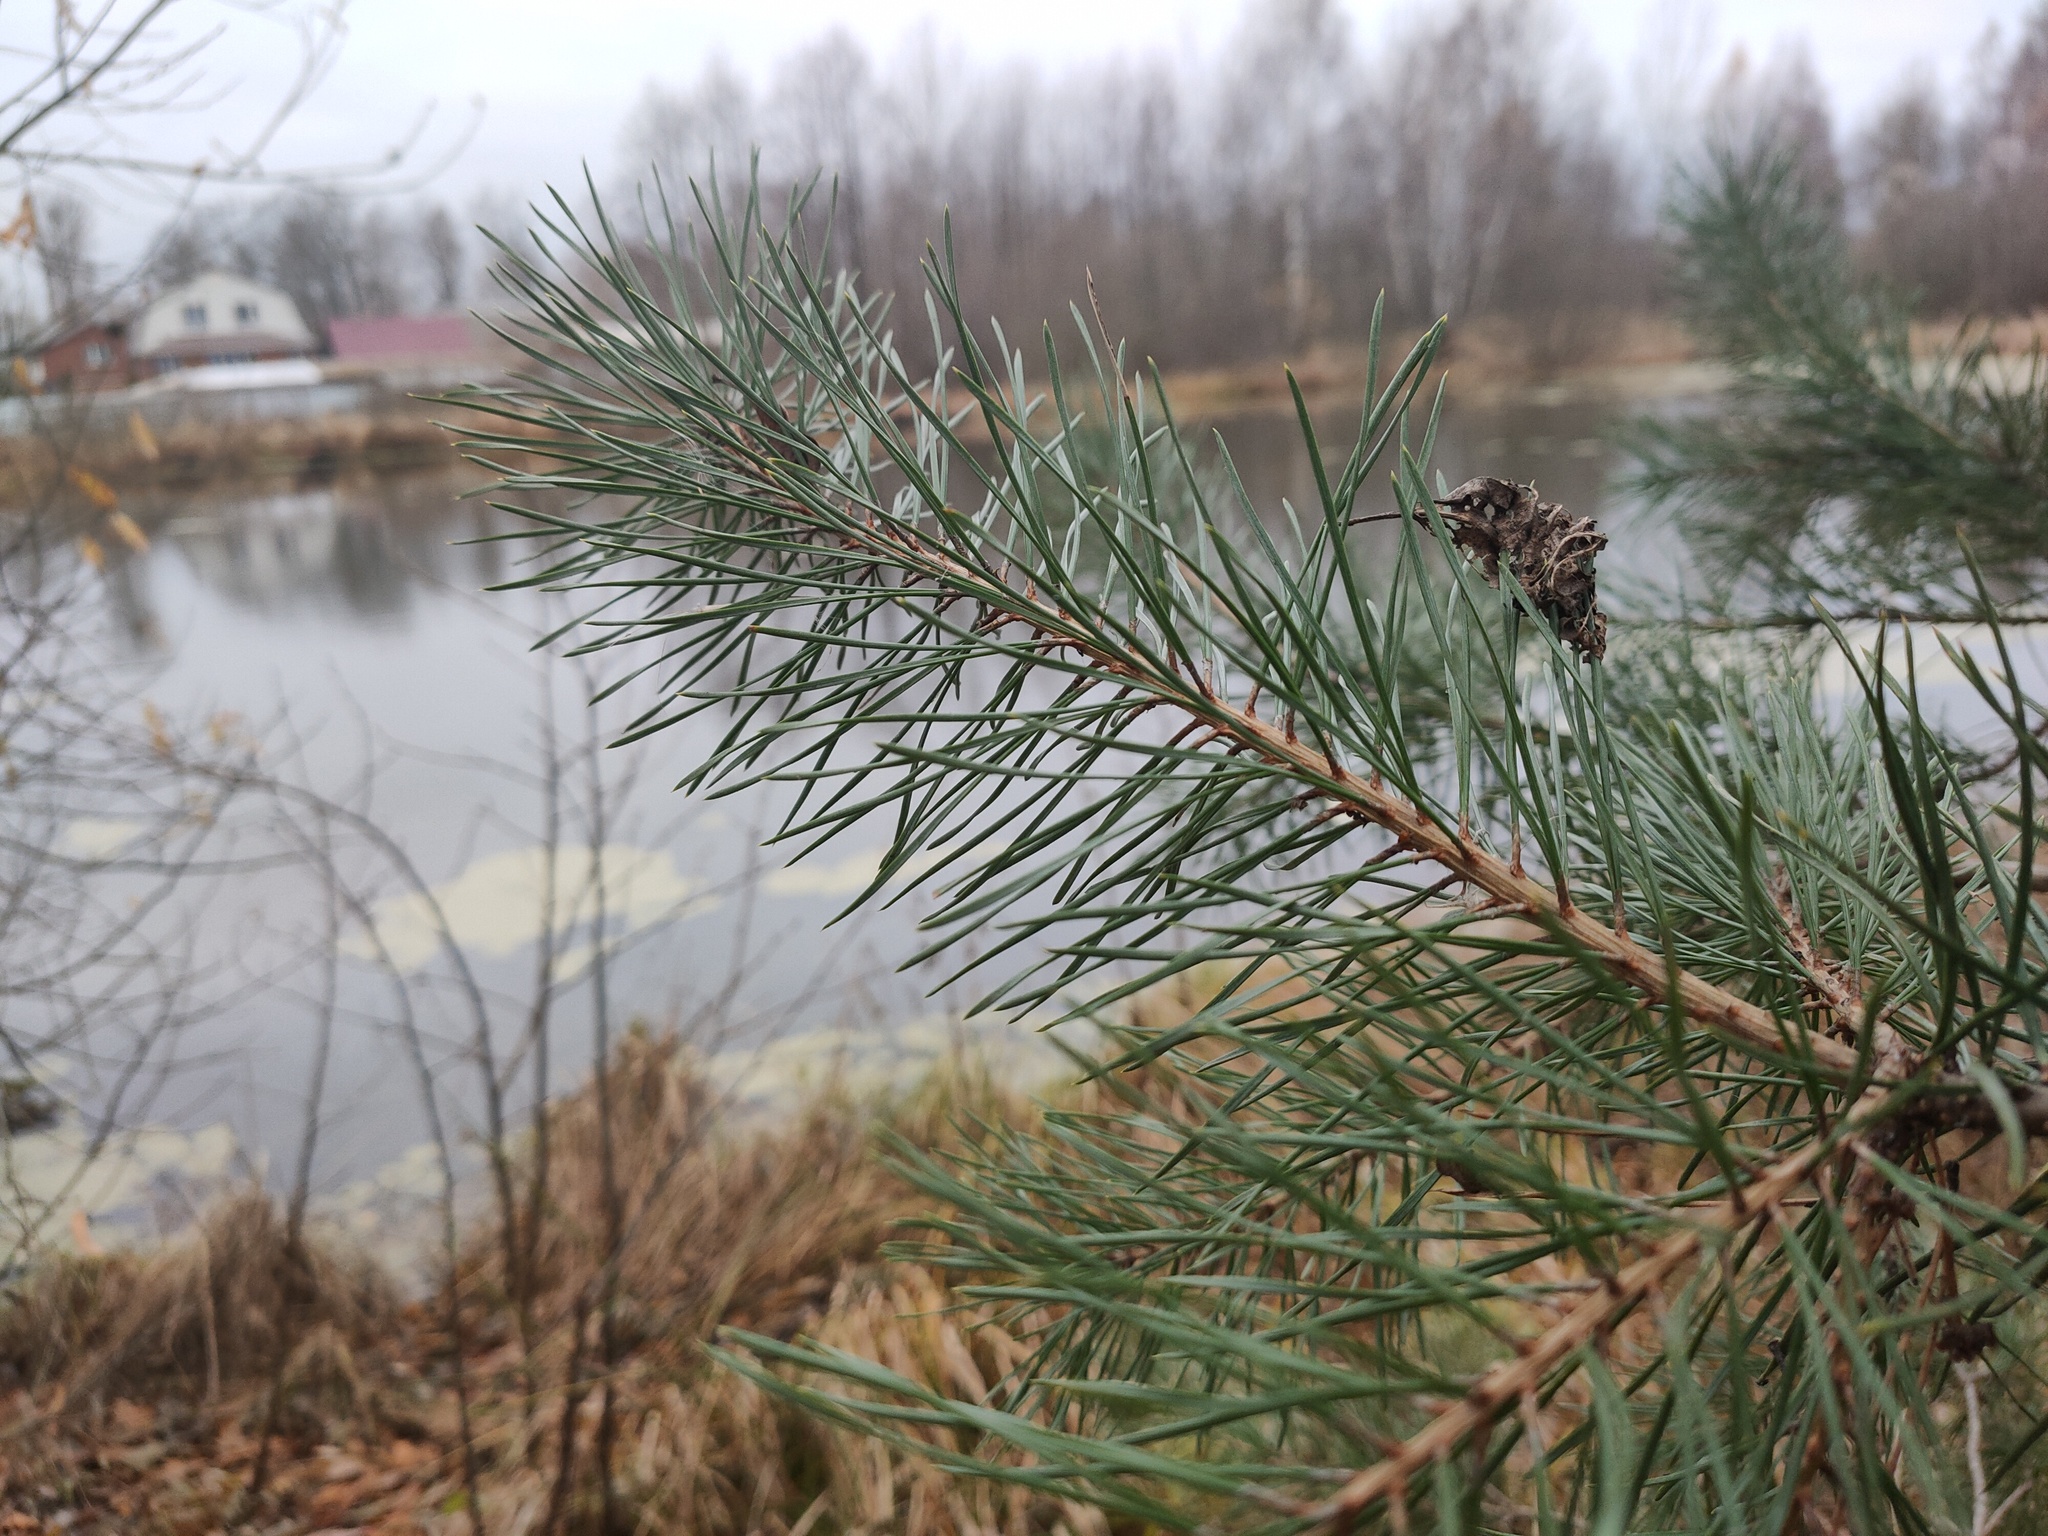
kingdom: Plantae
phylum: Tracheophyta
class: Pinopsida
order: Pinales
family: Pinaceae
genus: Pinus
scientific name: Pinus sylvestris
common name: Scots pine
